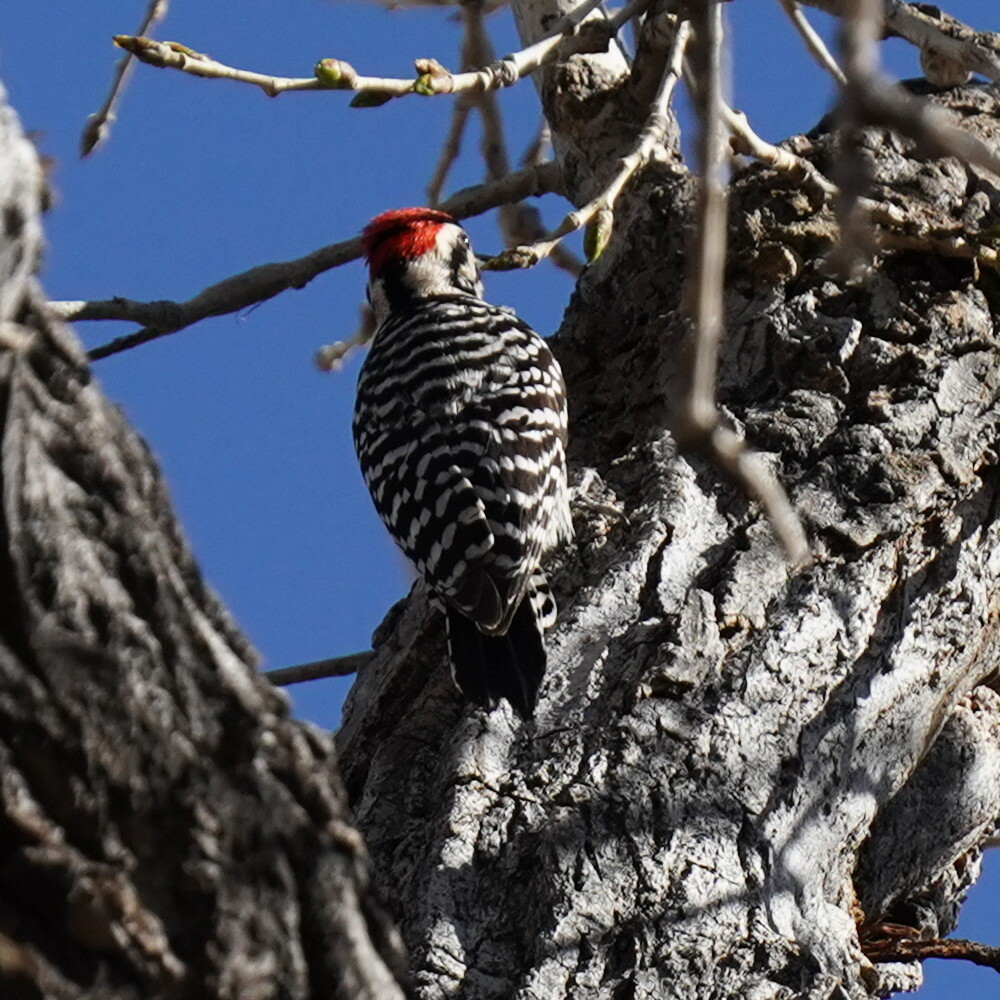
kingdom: Animalia
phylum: Chordata
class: Aves
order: Piciformes
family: Picidae
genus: Dryobates
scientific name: Dryobates scalaris
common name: Ladder-backed woodpecker
